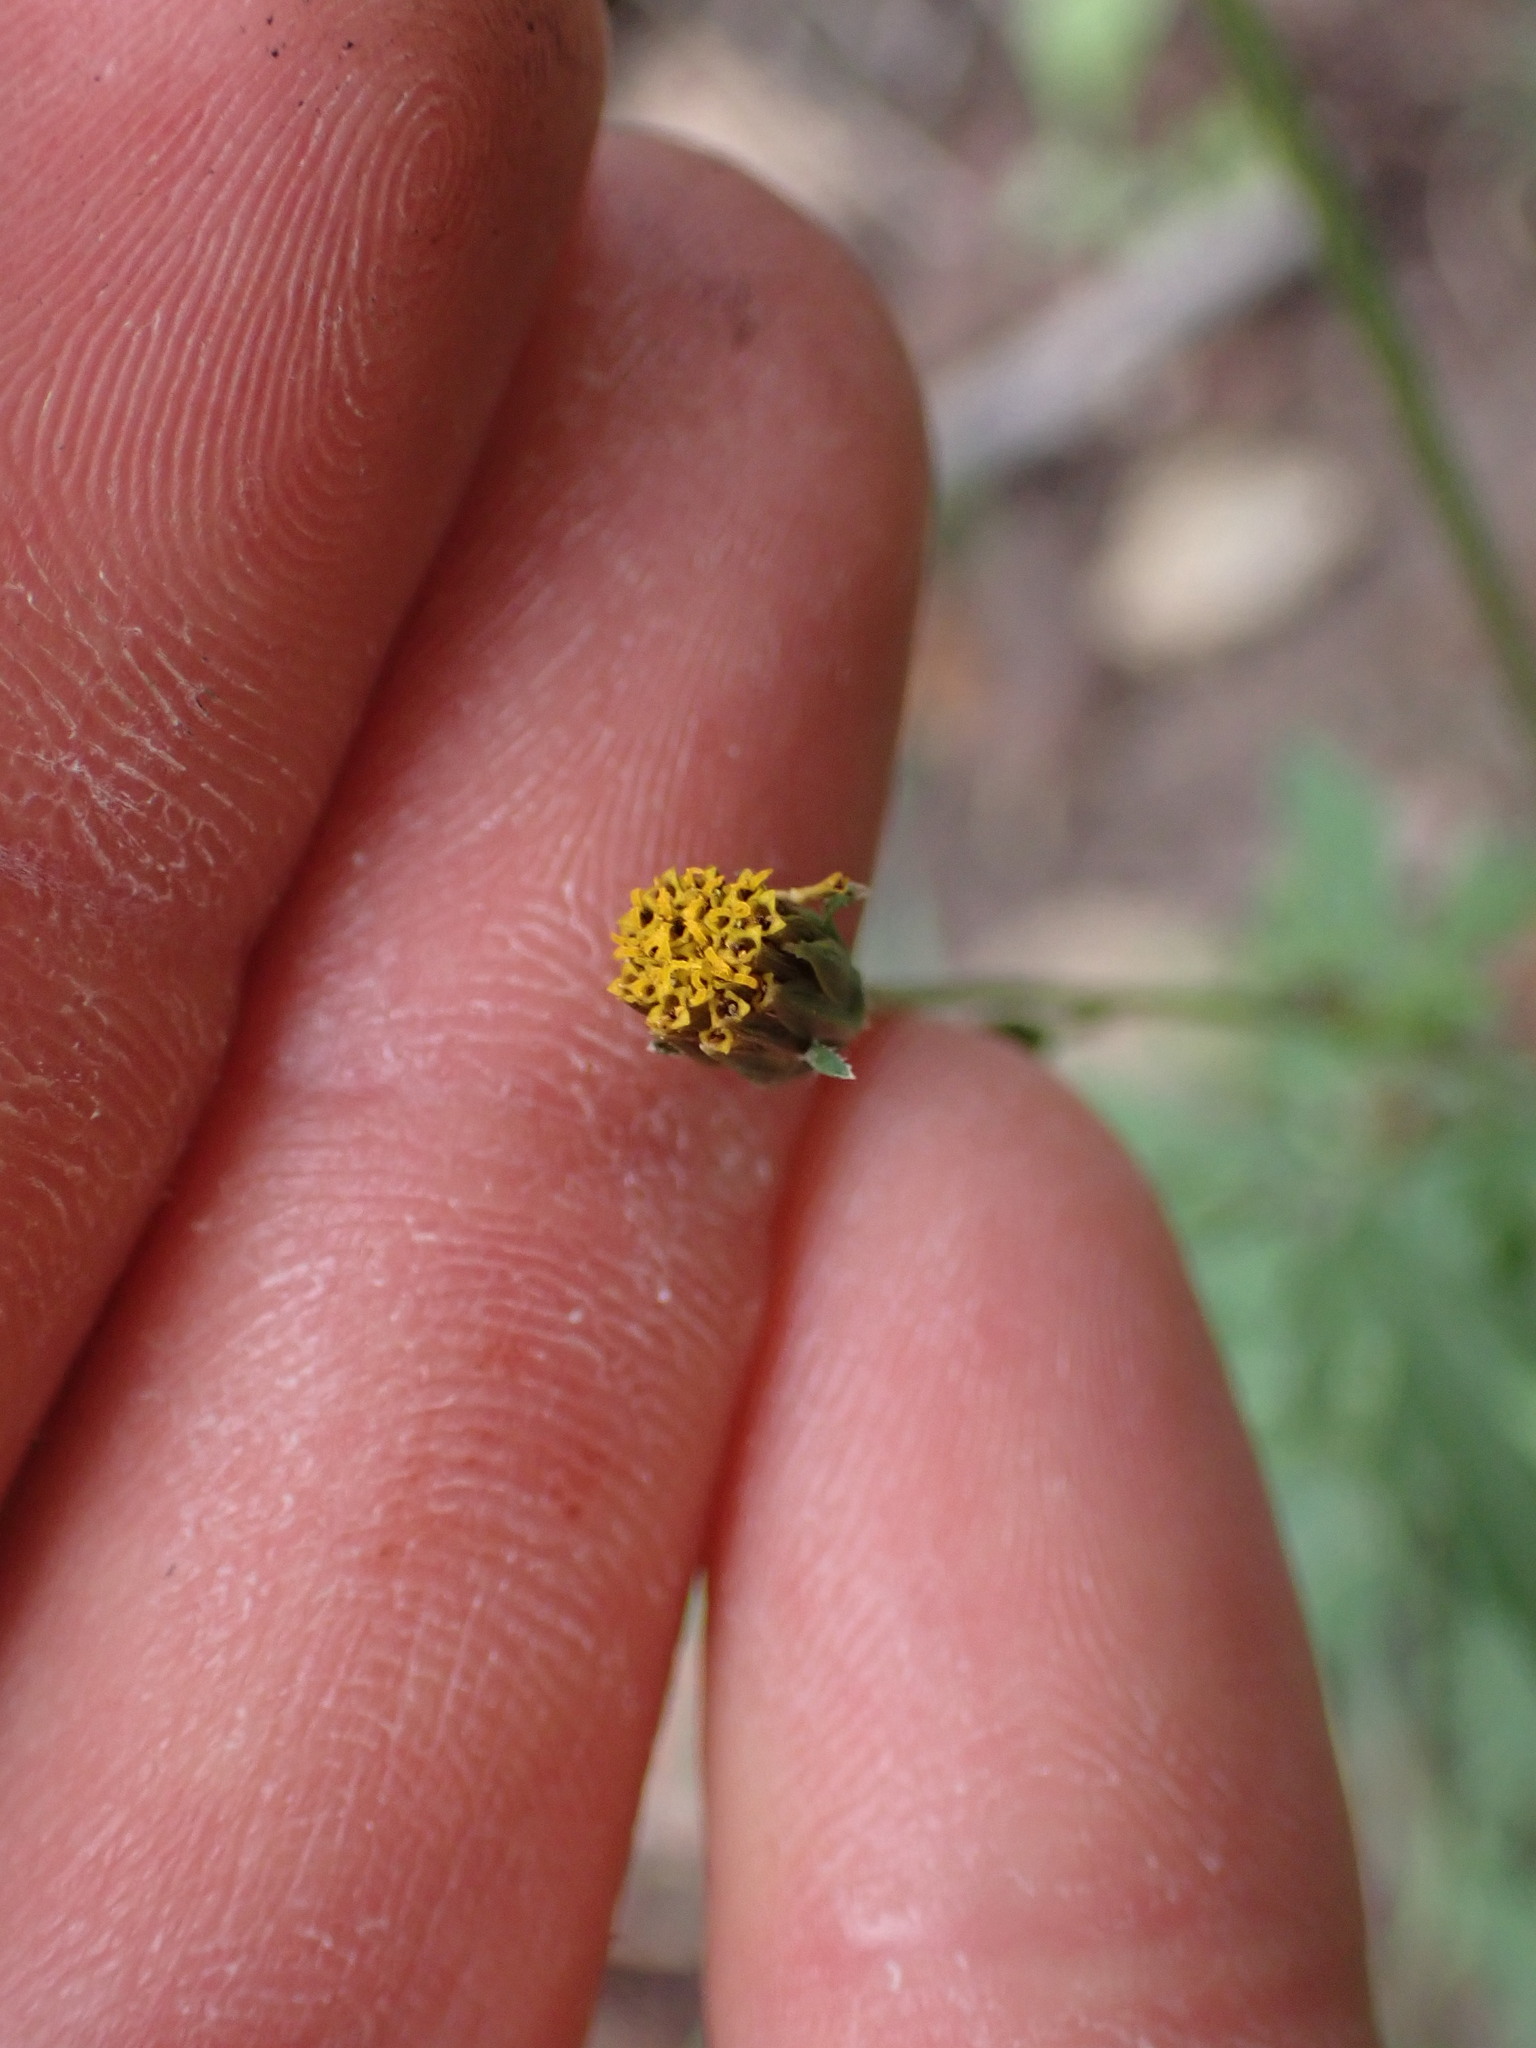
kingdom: Plantae
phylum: Tracheophyta
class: Magnoliopsida
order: Asterales
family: Asteraceae
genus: Bidens
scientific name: Bidens subalternans
